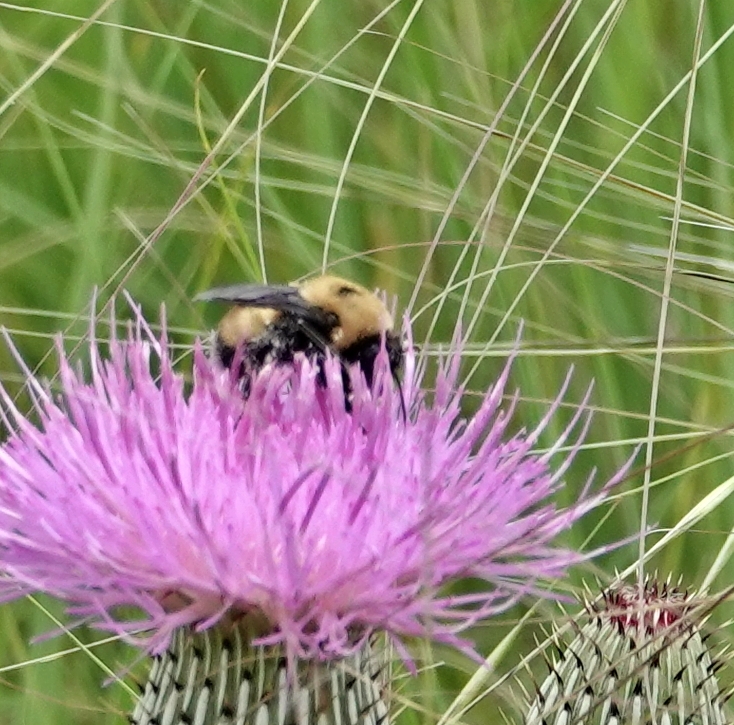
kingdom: Animalia
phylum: Arthropoda
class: Insecta
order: Hymenoptera
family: Apidae
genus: Bombus
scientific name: Bombus nevadensis
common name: Nevada bumble bee
